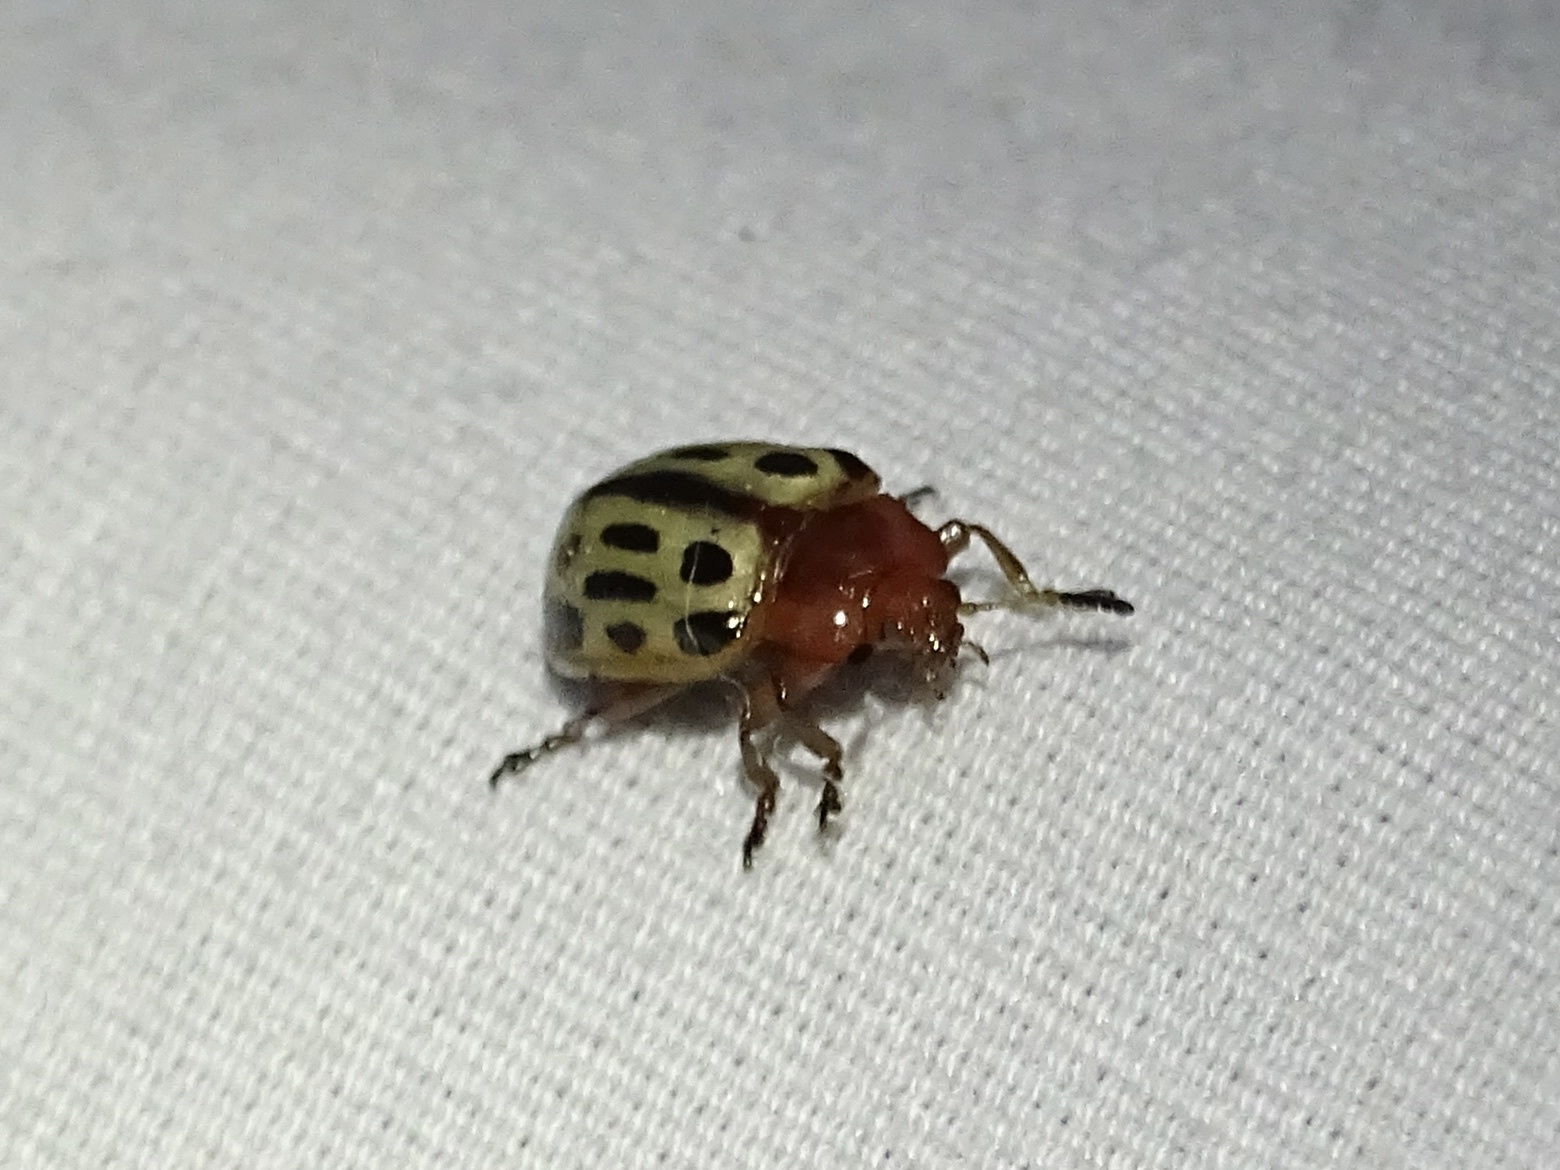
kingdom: Animalia
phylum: Arthropoda
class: Insecta
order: Coleoptera
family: Chrysomelidae
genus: Chrysomela
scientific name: Chrysomela texana
